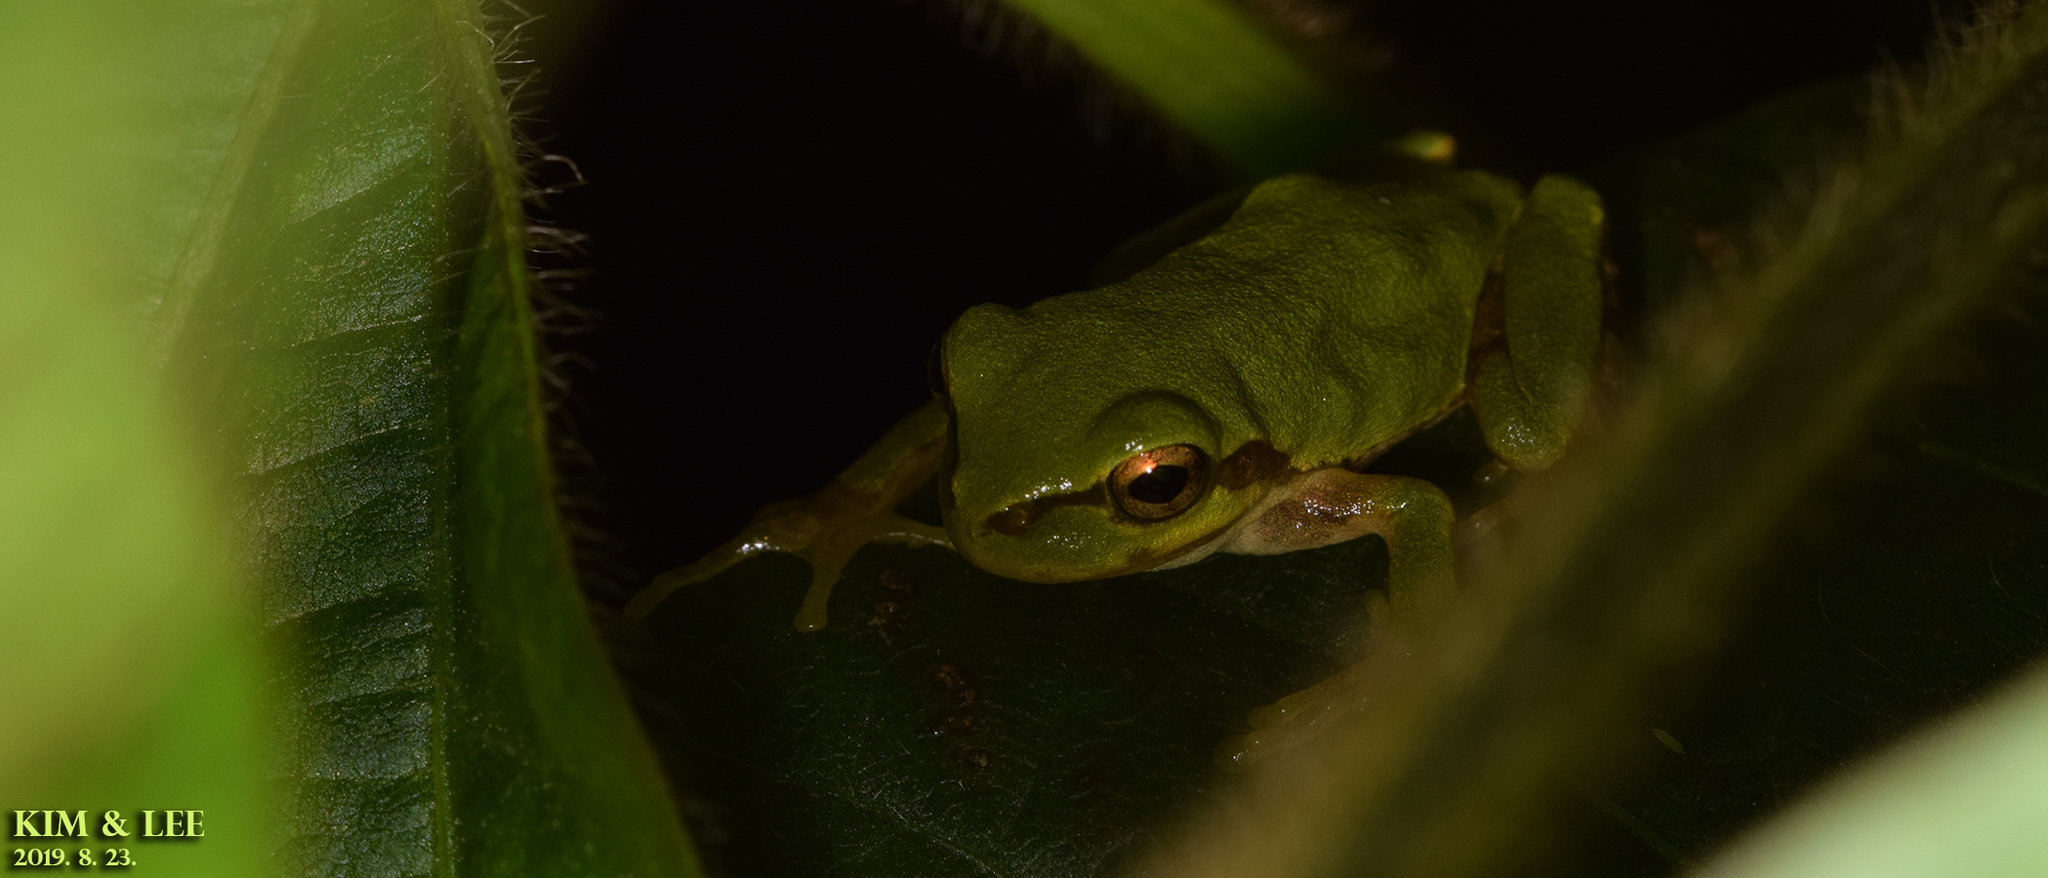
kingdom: Animalia
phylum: Chordata
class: Amphibia
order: Anura
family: Hylidae
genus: Dryophytes
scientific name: Dryophytes japonicus
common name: Japanese treefrog
